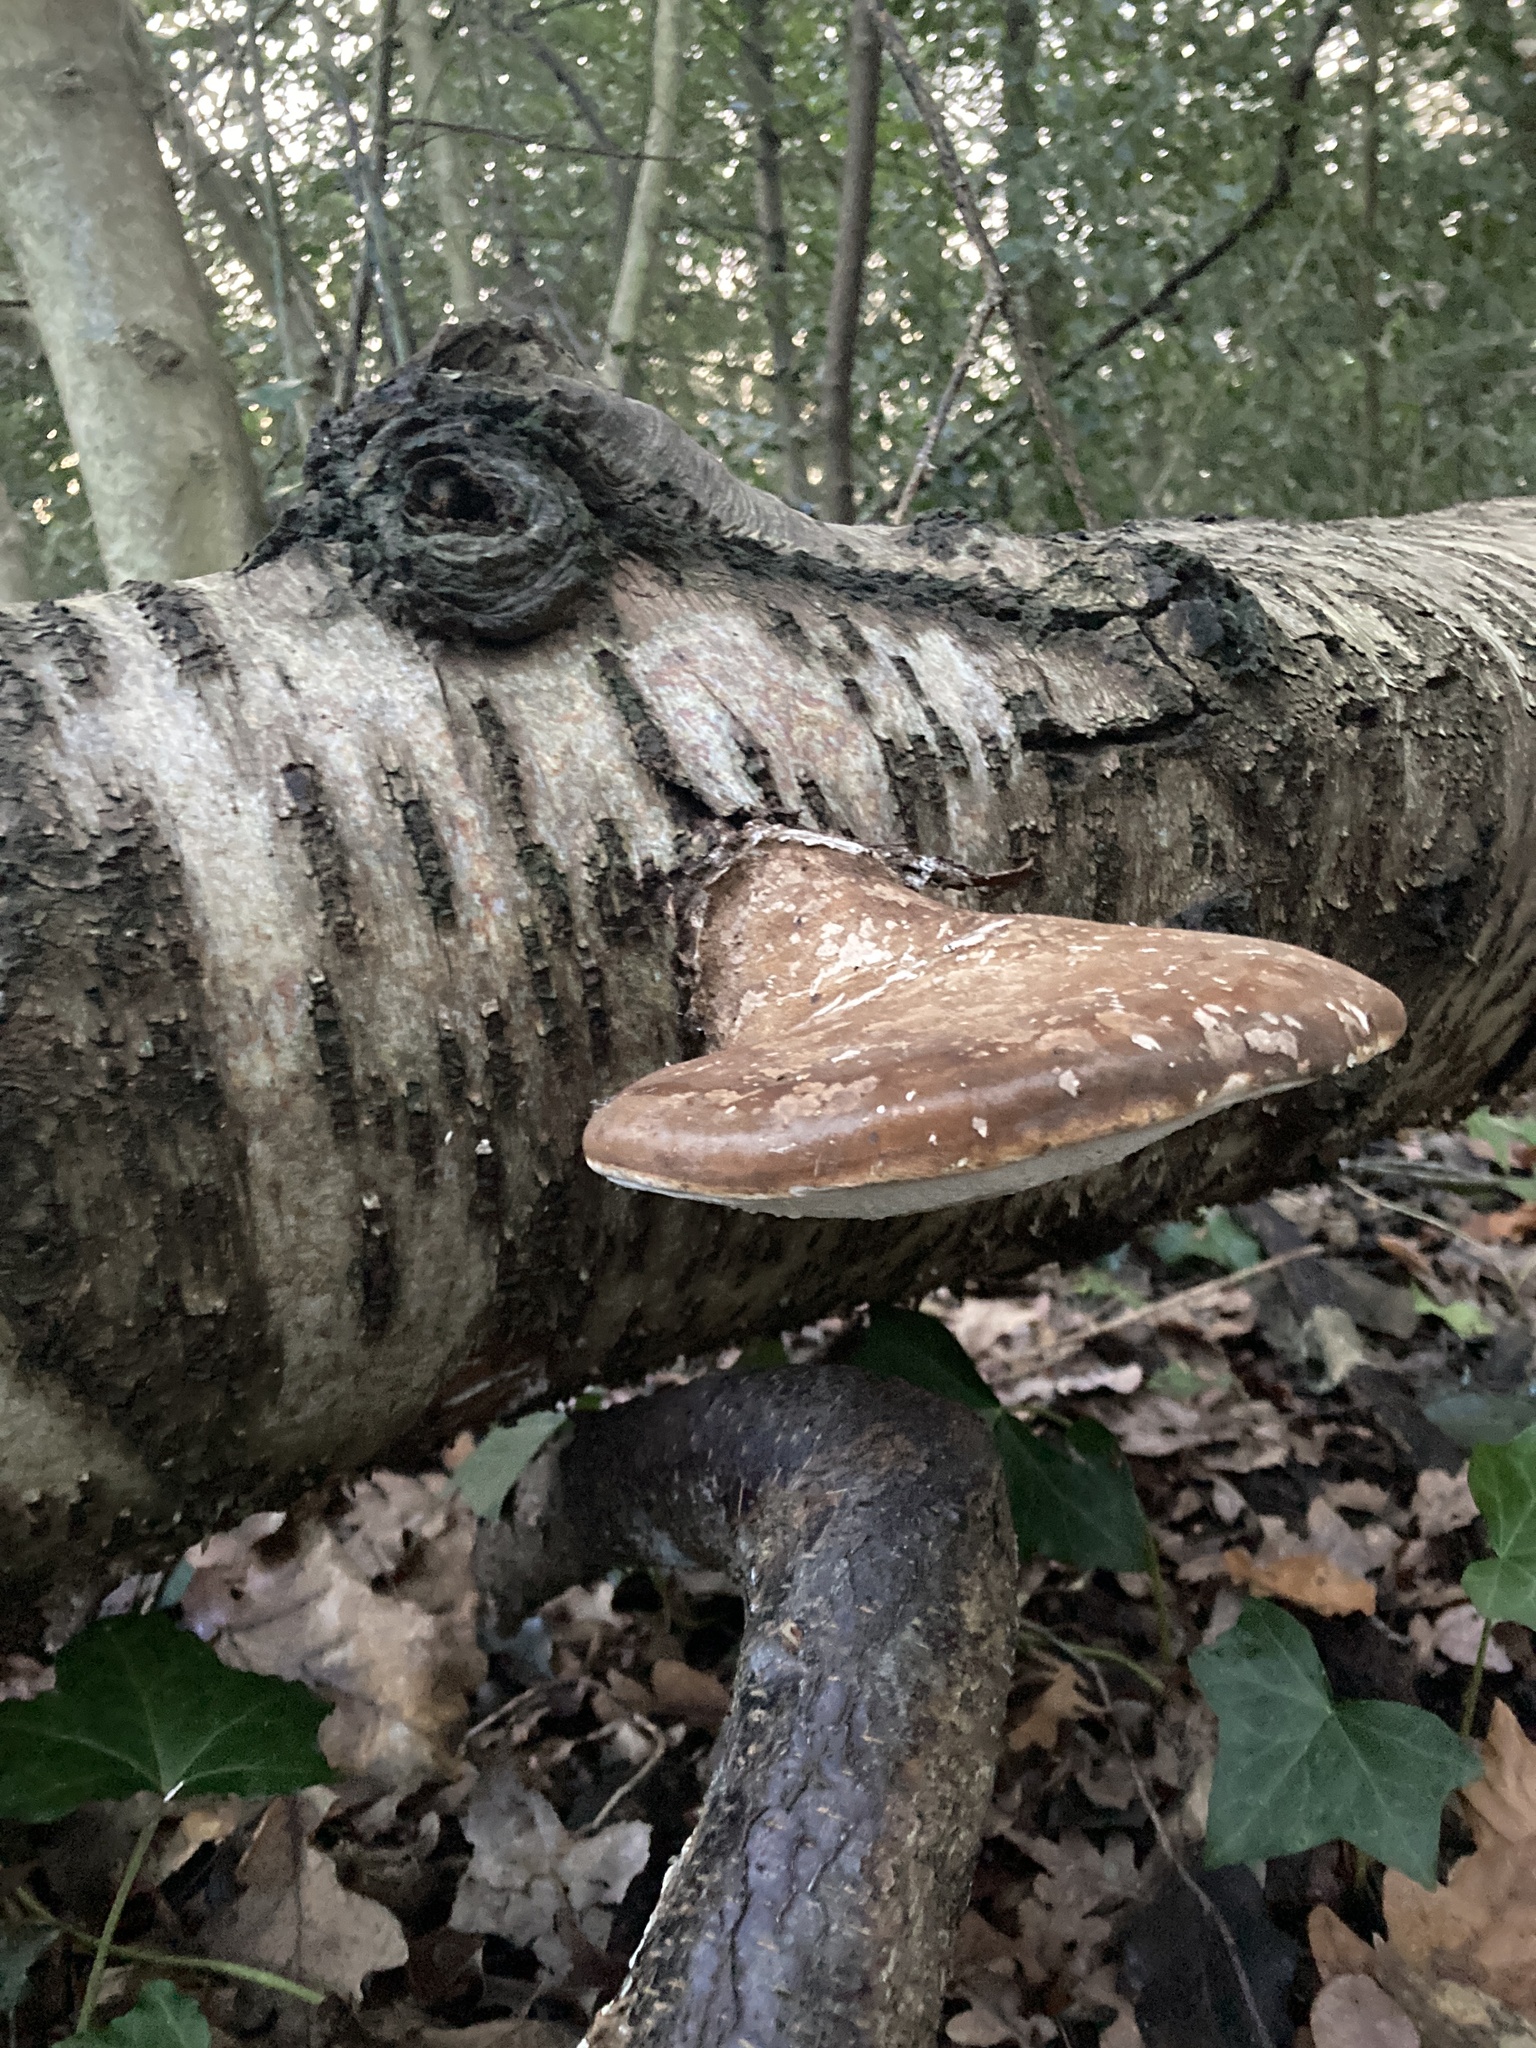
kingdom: Fungi
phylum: Basidiomycota
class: Agaricomycetes
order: Polyporales
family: Fomitopsidaceae
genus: Fomitopsis
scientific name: Fomitopsis betulina
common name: Birch polypore
